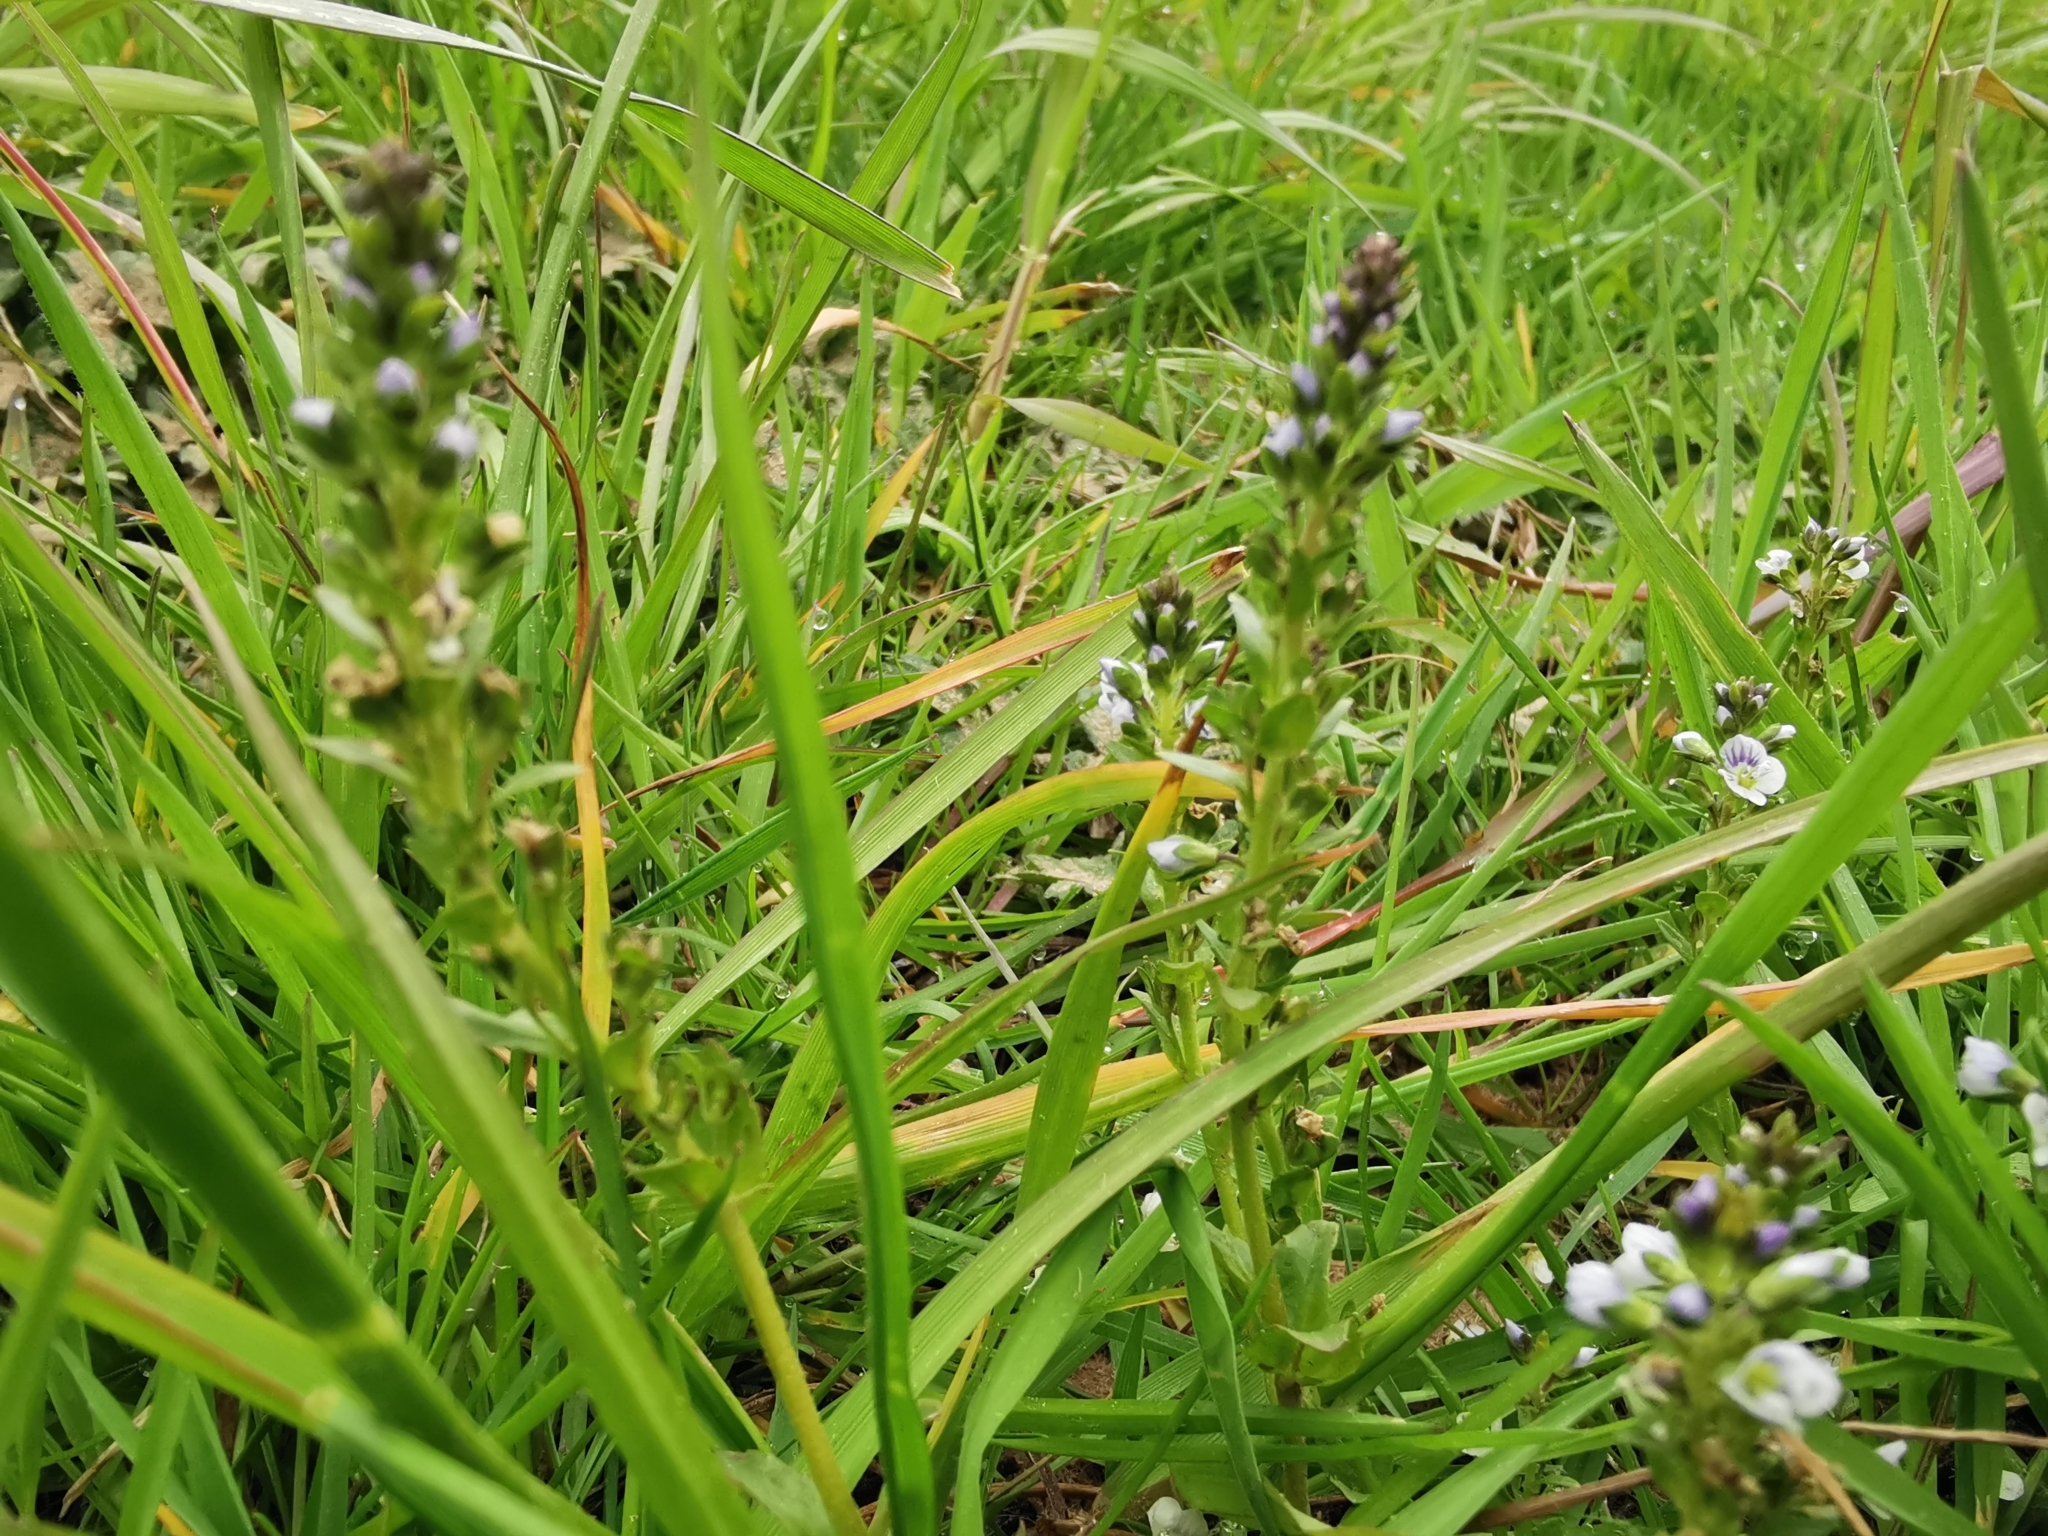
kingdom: Plantae
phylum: Tracheophyta
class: Magnoliopsida
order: Lamiales
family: Plantaginaceae
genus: Veronica
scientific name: Veronica serpyllifolia
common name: Thyme-leaved speedwell
